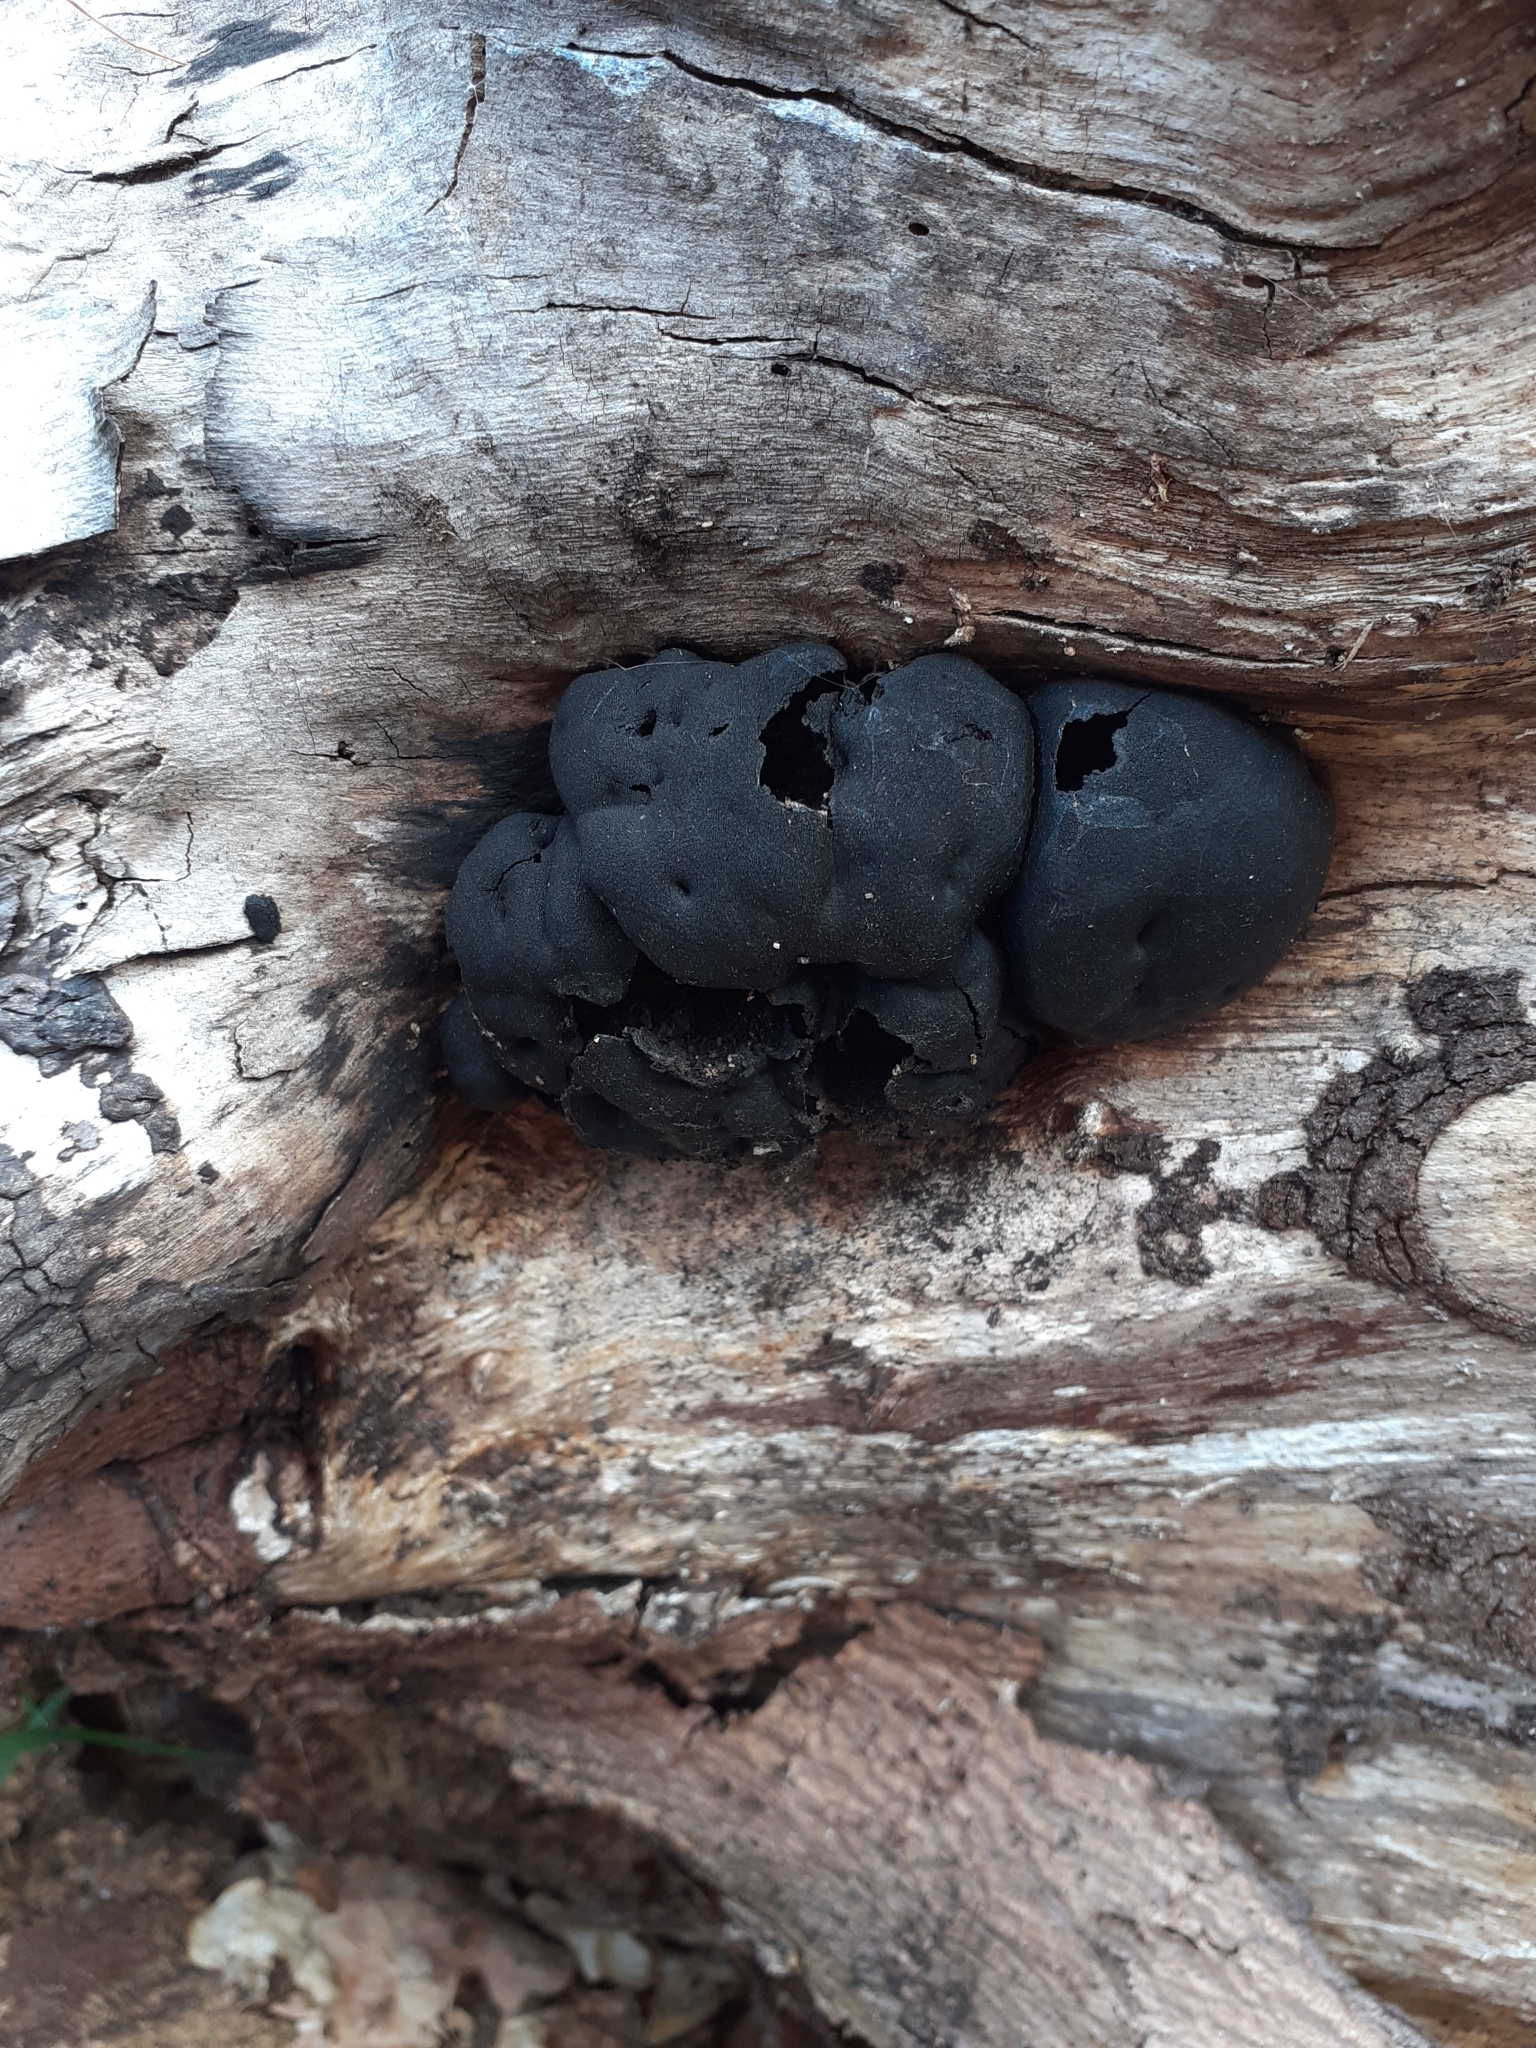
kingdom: Fungi
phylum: Ascomycota
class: Sordariomycetes
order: Xylariales
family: Hypoxylaceae
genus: Daldinia
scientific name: Daldinia concentrica
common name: Cramp balls
